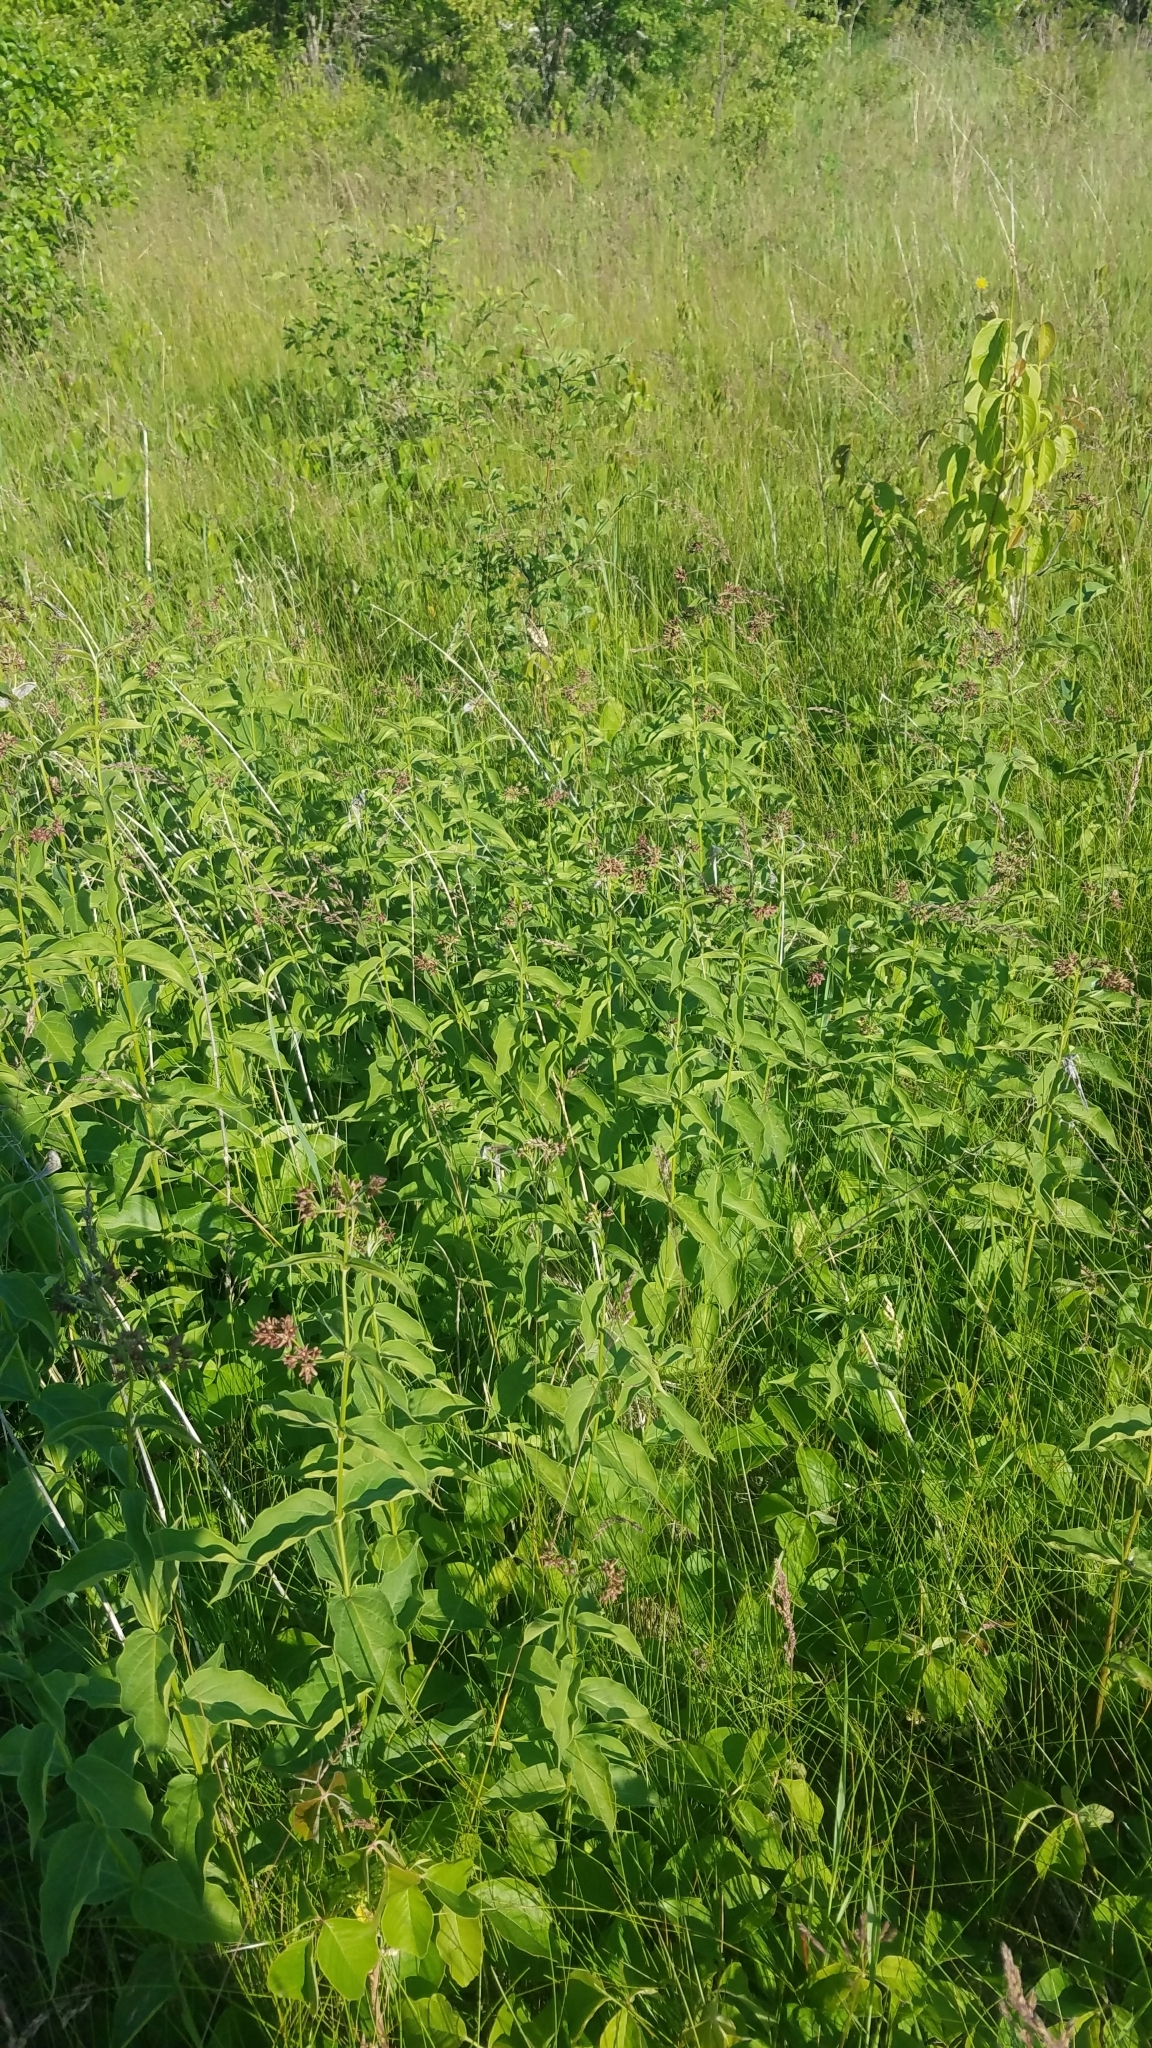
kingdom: Plantae
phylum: Tracheophyta
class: Magnoliopsida
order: Gentianales
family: Apocynaceae
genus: Vincetoxicum
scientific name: Vincetoxicum rossicum
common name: Dog-strangling vine
